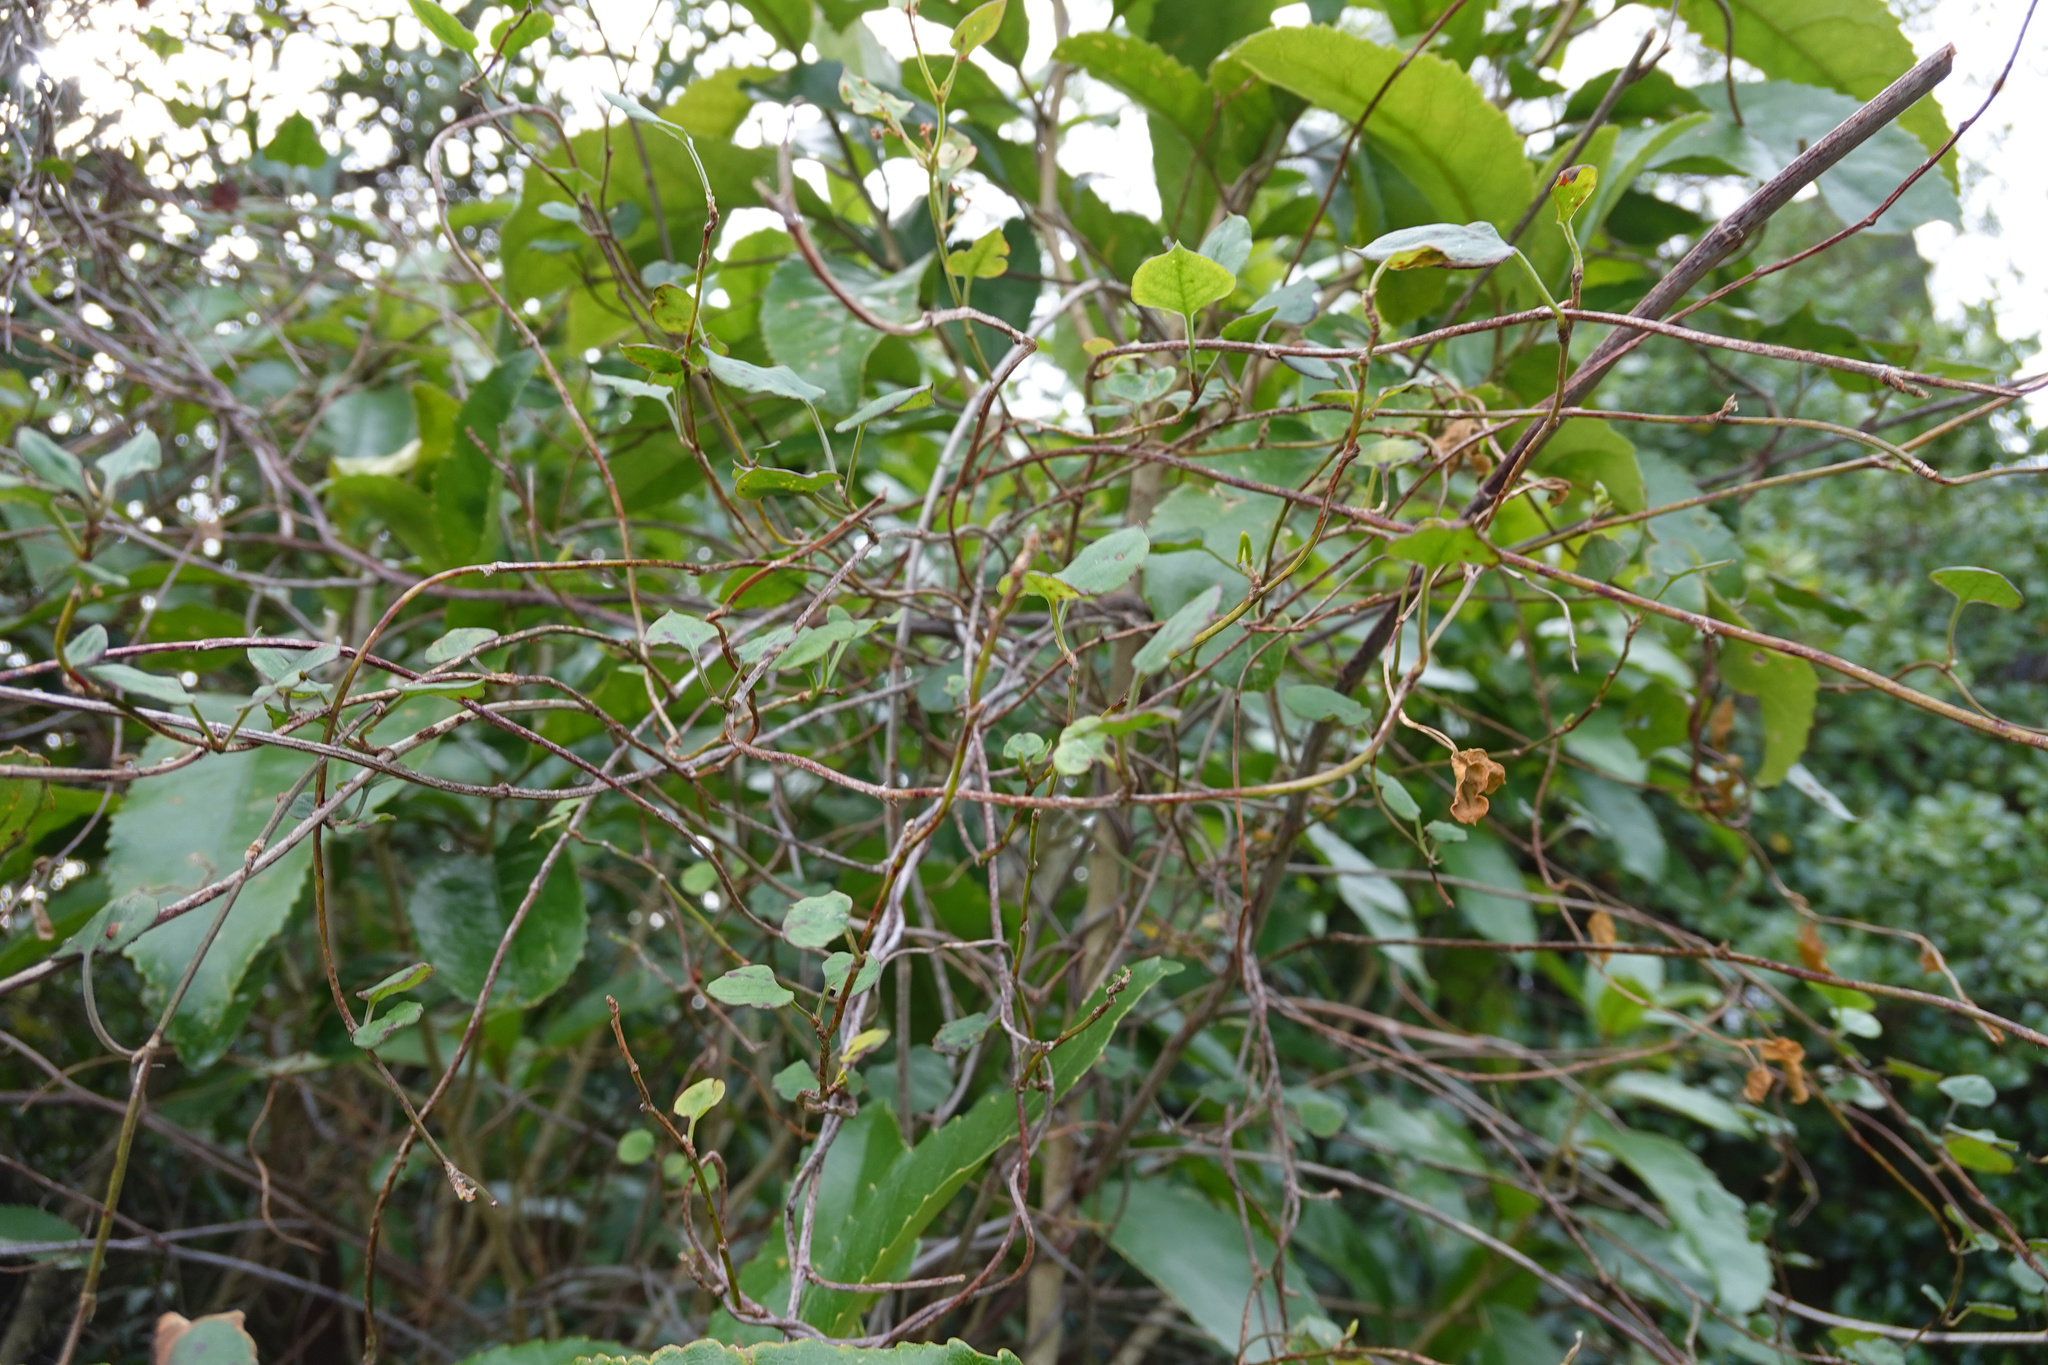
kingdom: Plantae
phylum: Tracheophyta
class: Magnoliopsida
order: Caryophyllales
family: Polygonaceae
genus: Muehlenbeckia
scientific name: Muehlenbeckia australis
